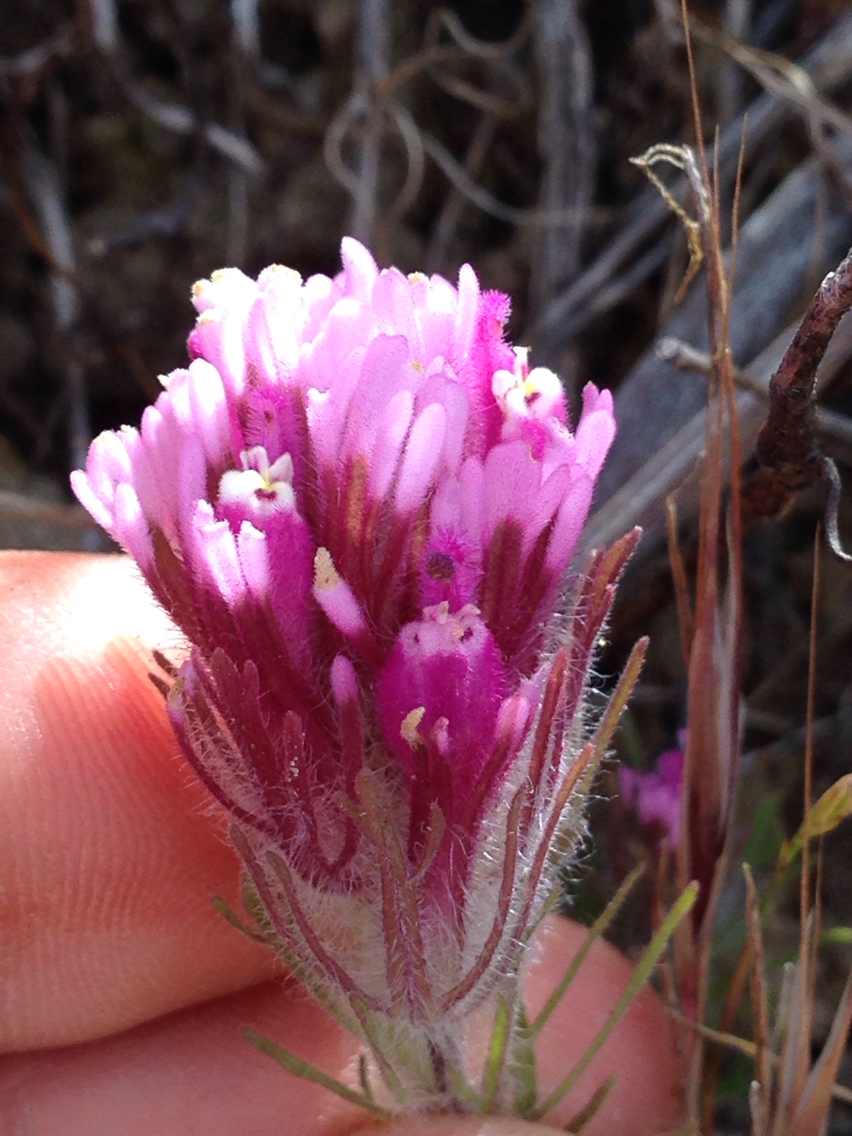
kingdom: Plantae
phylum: Tracheophyta
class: Magnoliopsida
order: Lamiales
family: Orobanchaceae
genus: Castilleja
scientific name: Castilleja exserta
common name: Purple owl-clover
